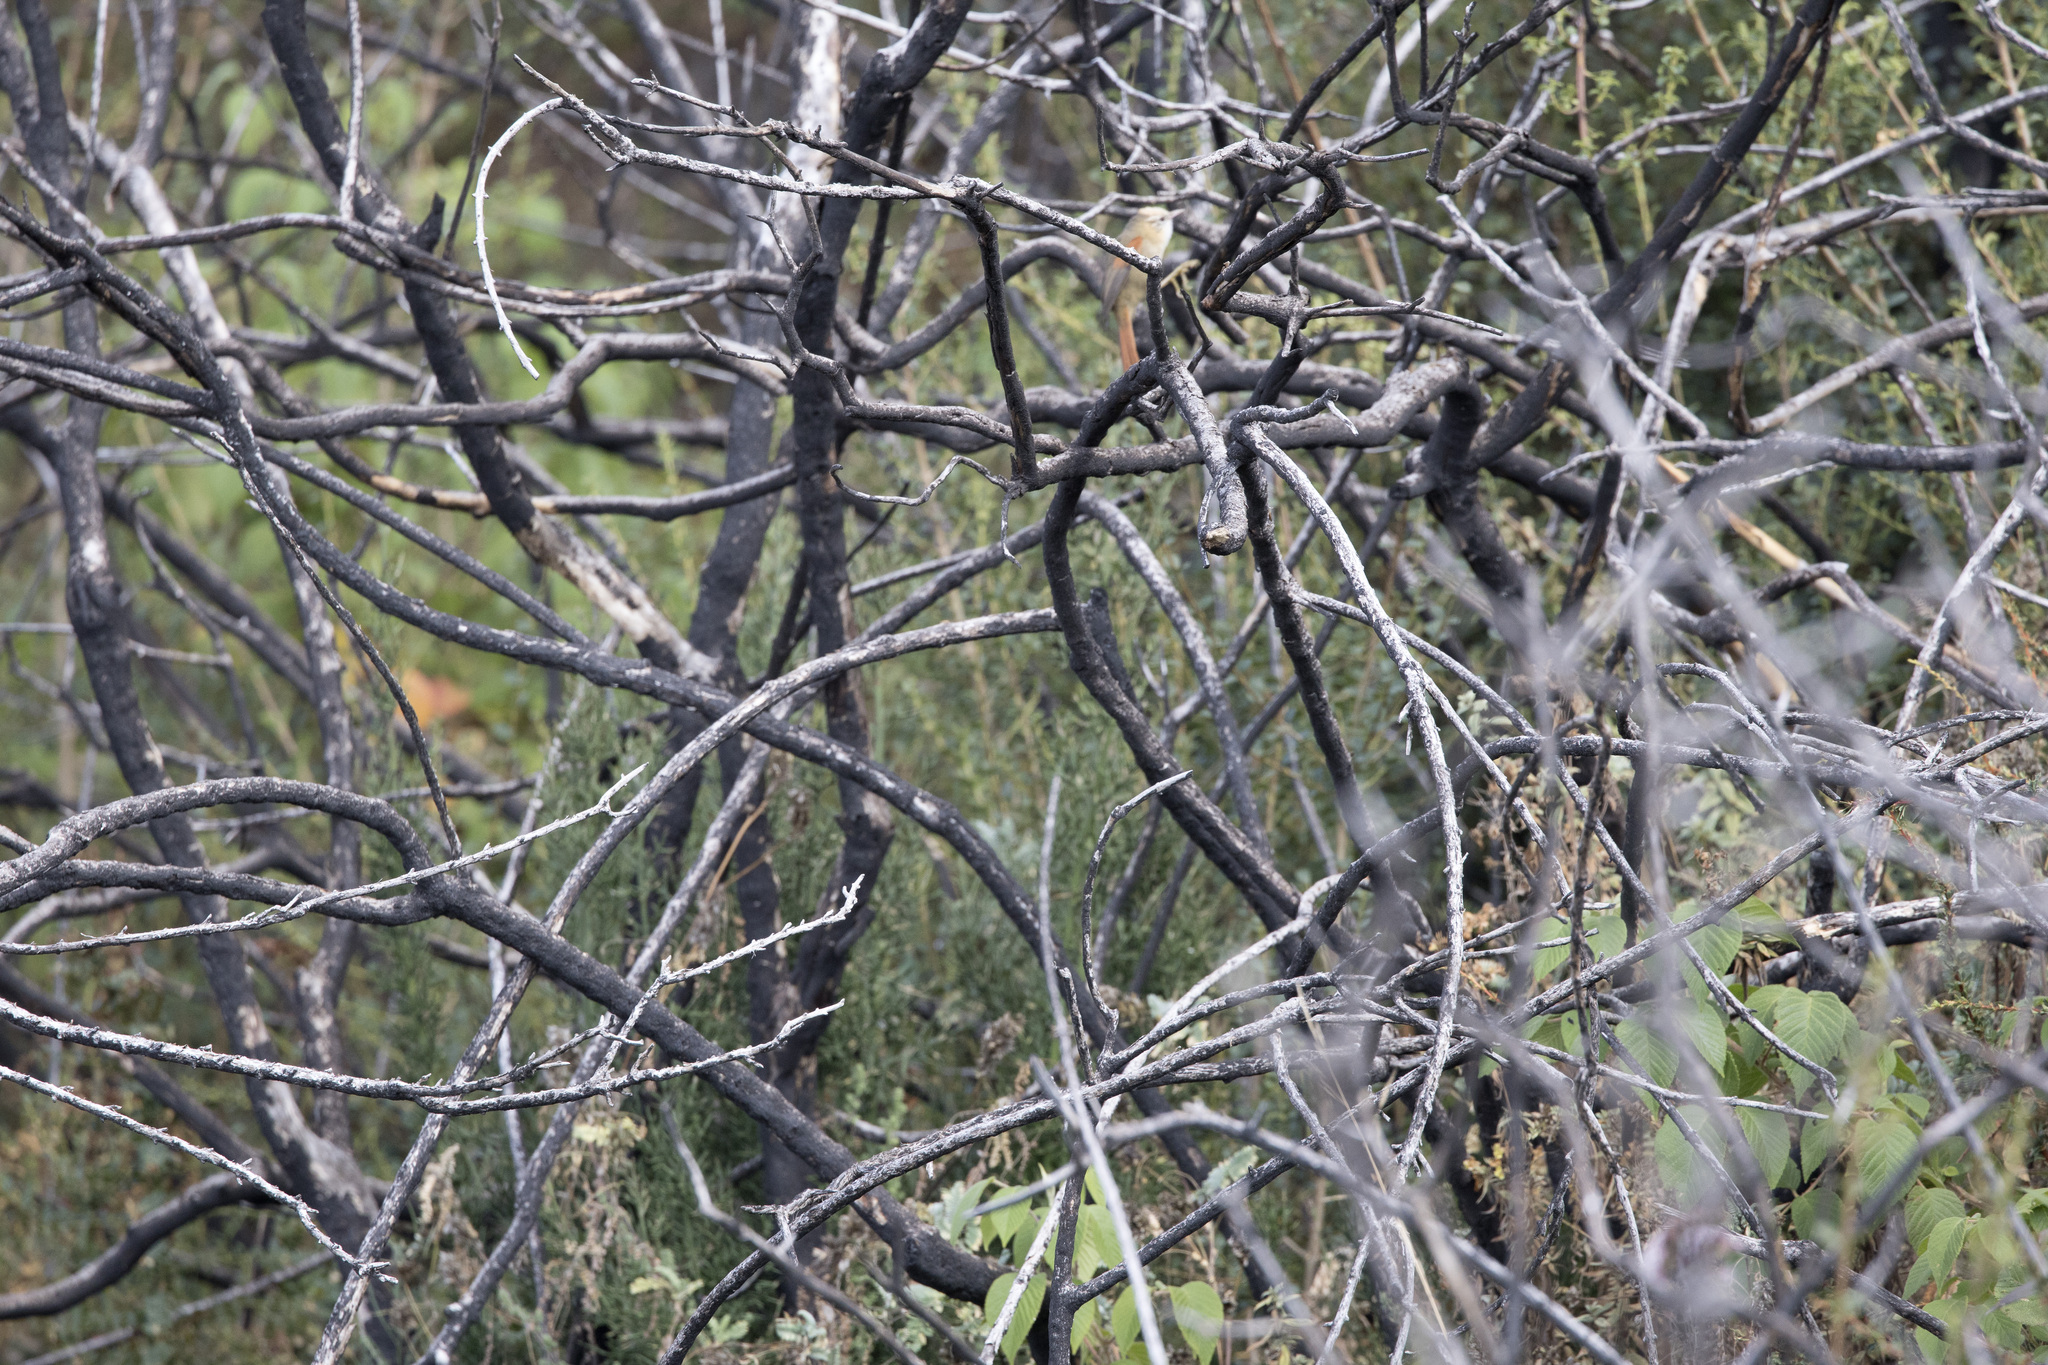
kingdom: Animalia
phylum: Chordata
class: Aves
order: Passeriformes
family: Furnariidae
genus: Cranioleuca
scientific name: Cranioleuca albicapilla
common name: Creamy-crested spinetail
